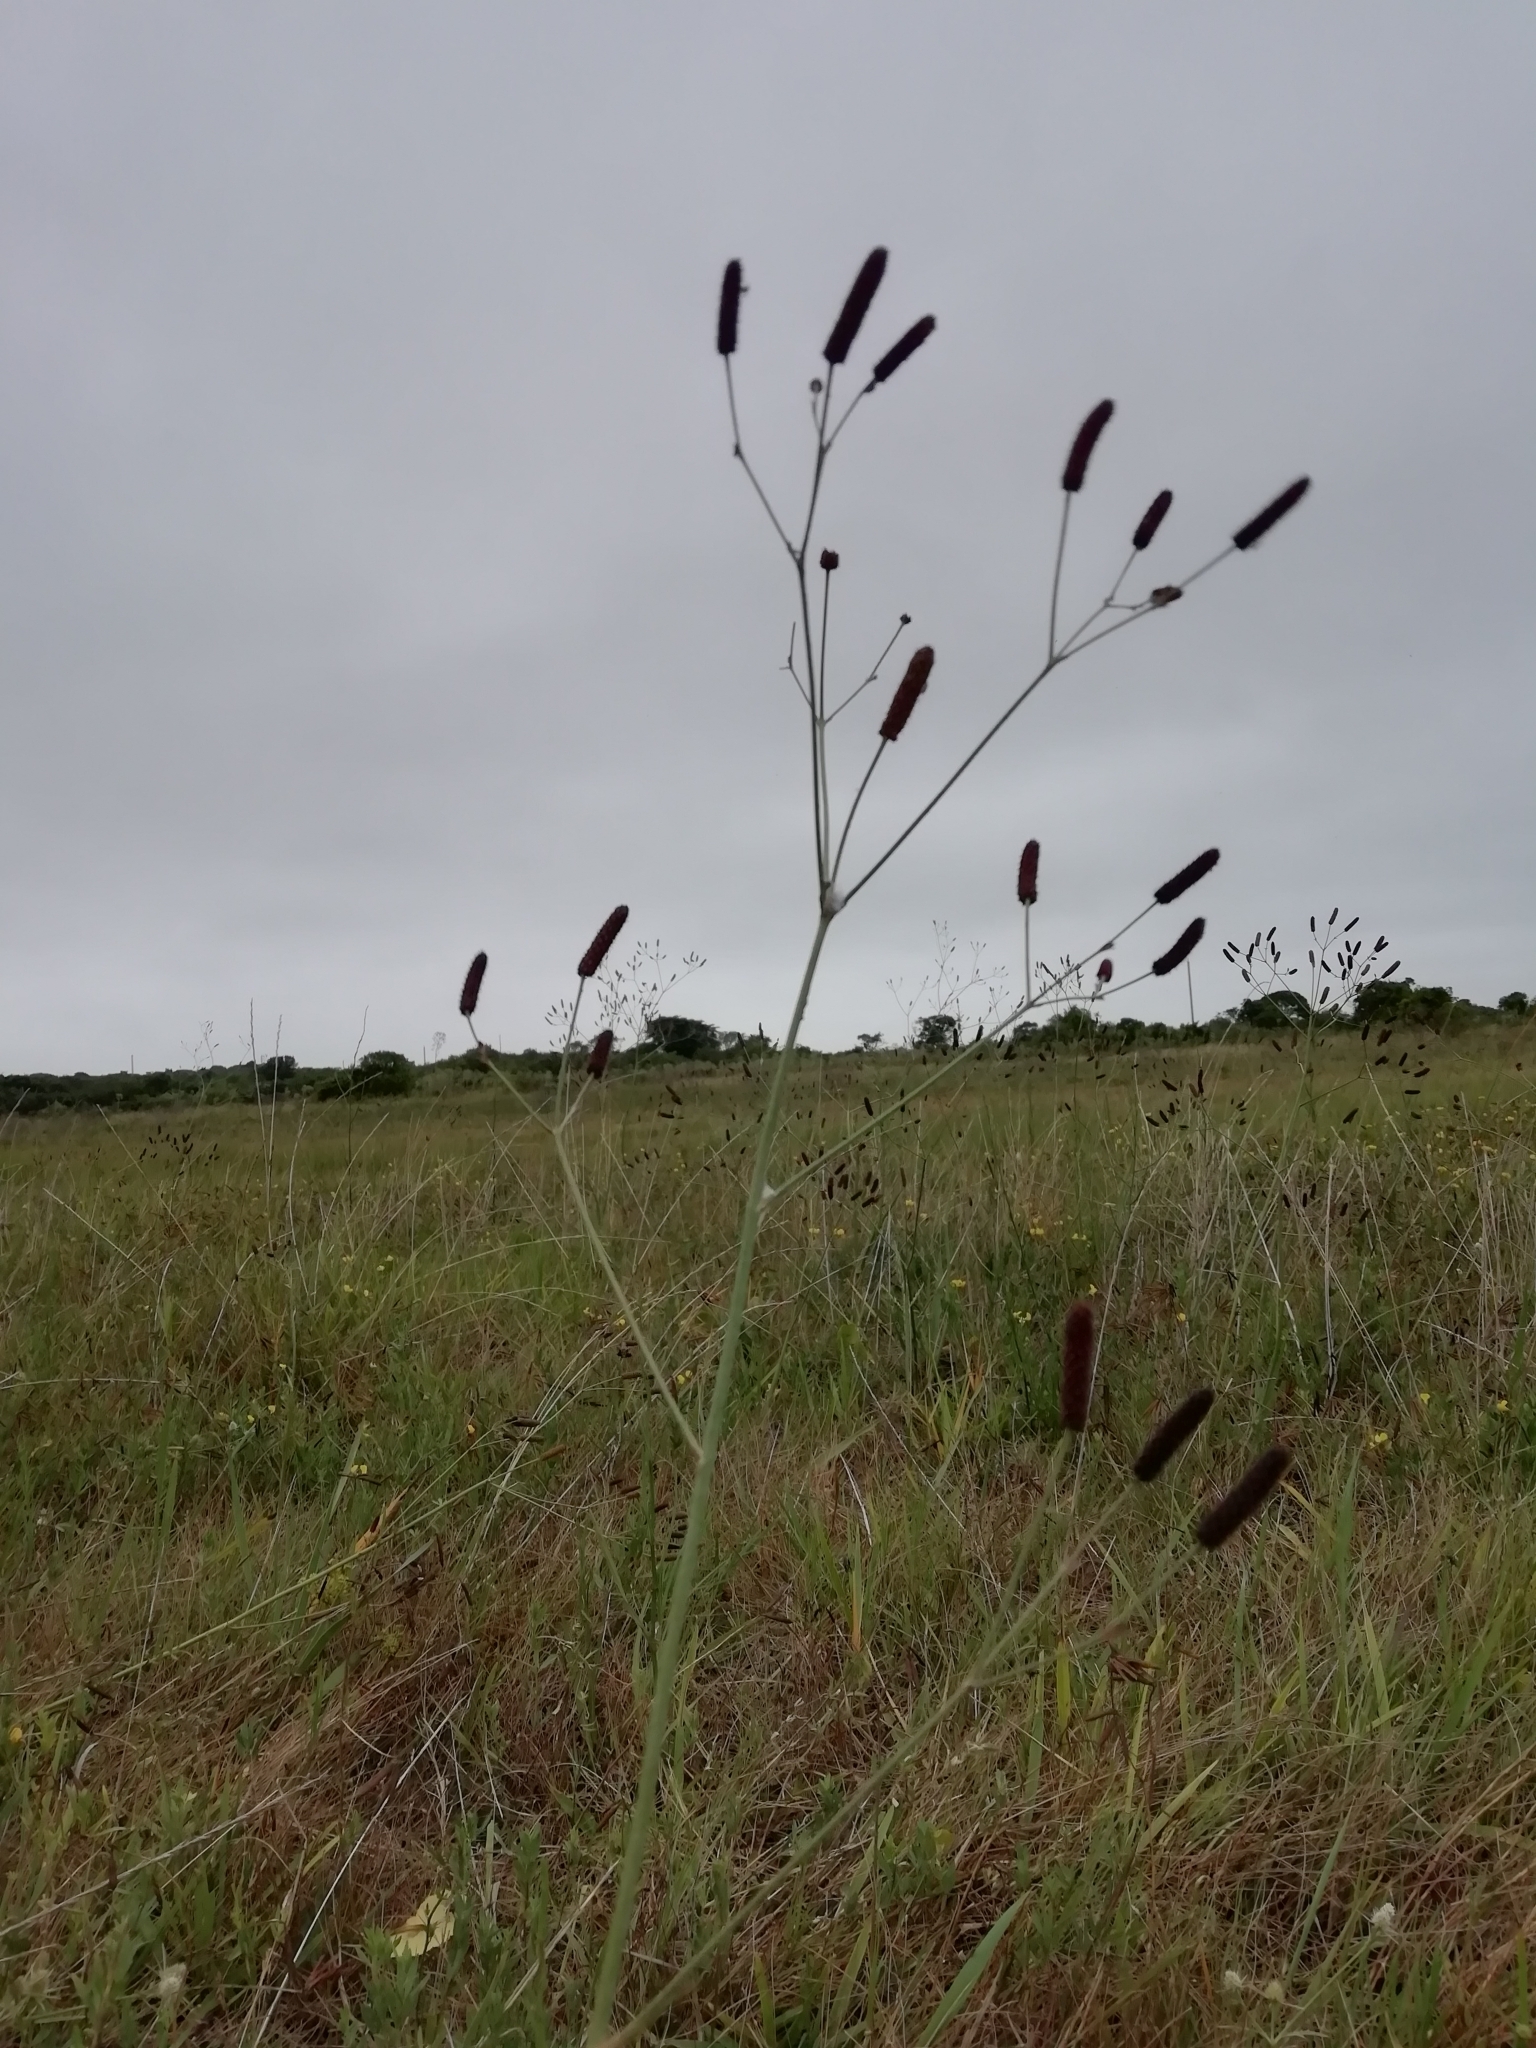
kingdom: Plantae
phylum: Tracheophyta
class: Magnoliopsida
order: Apiales
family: Apiaceae
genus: Eryngium
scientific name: Eryngium ebracteatum
